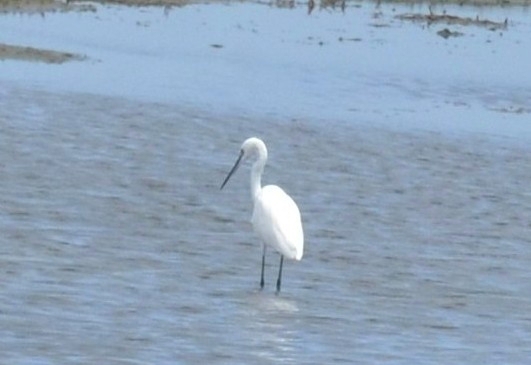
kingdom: Animalia
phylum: Chordata
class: Aves
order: Pelecaniformes
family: Ardeidae
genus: Egretta
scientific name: Egretta garzetta
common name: Little egret
